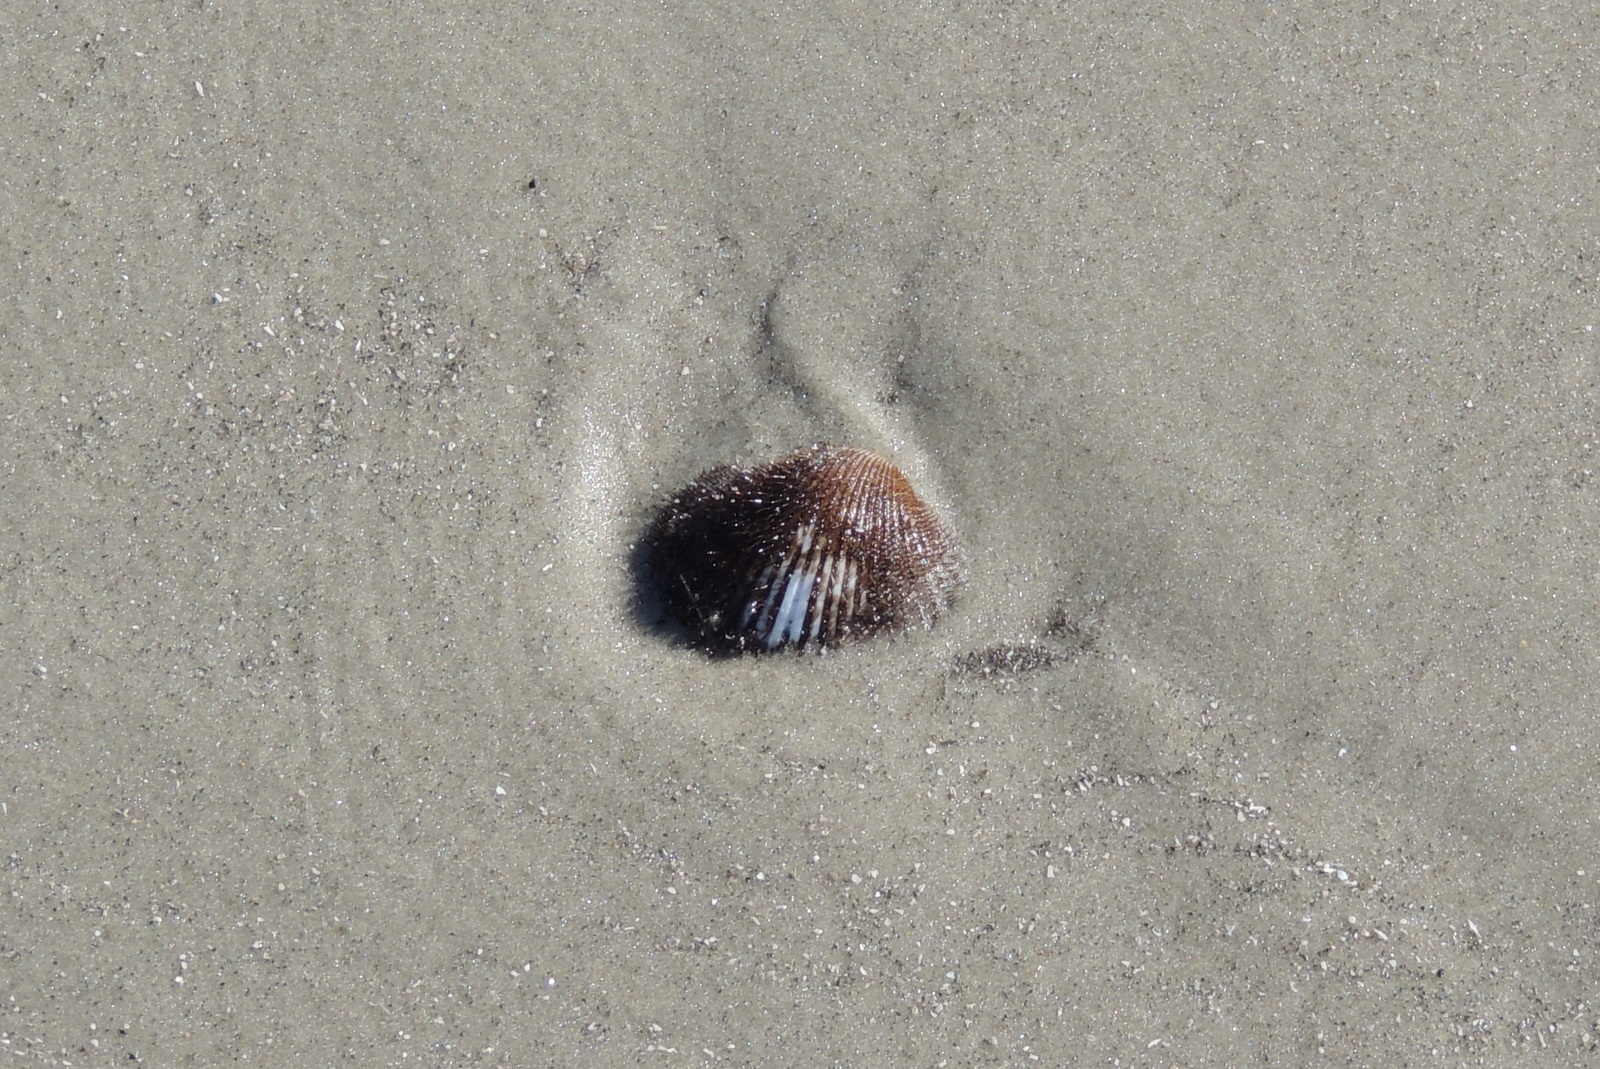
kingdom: Animalia
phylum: Mollusca
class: Bivalvia
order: Arcida
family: Arcidae
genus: Lunarca
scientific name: Lunarca ovalis
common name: Blood ark
